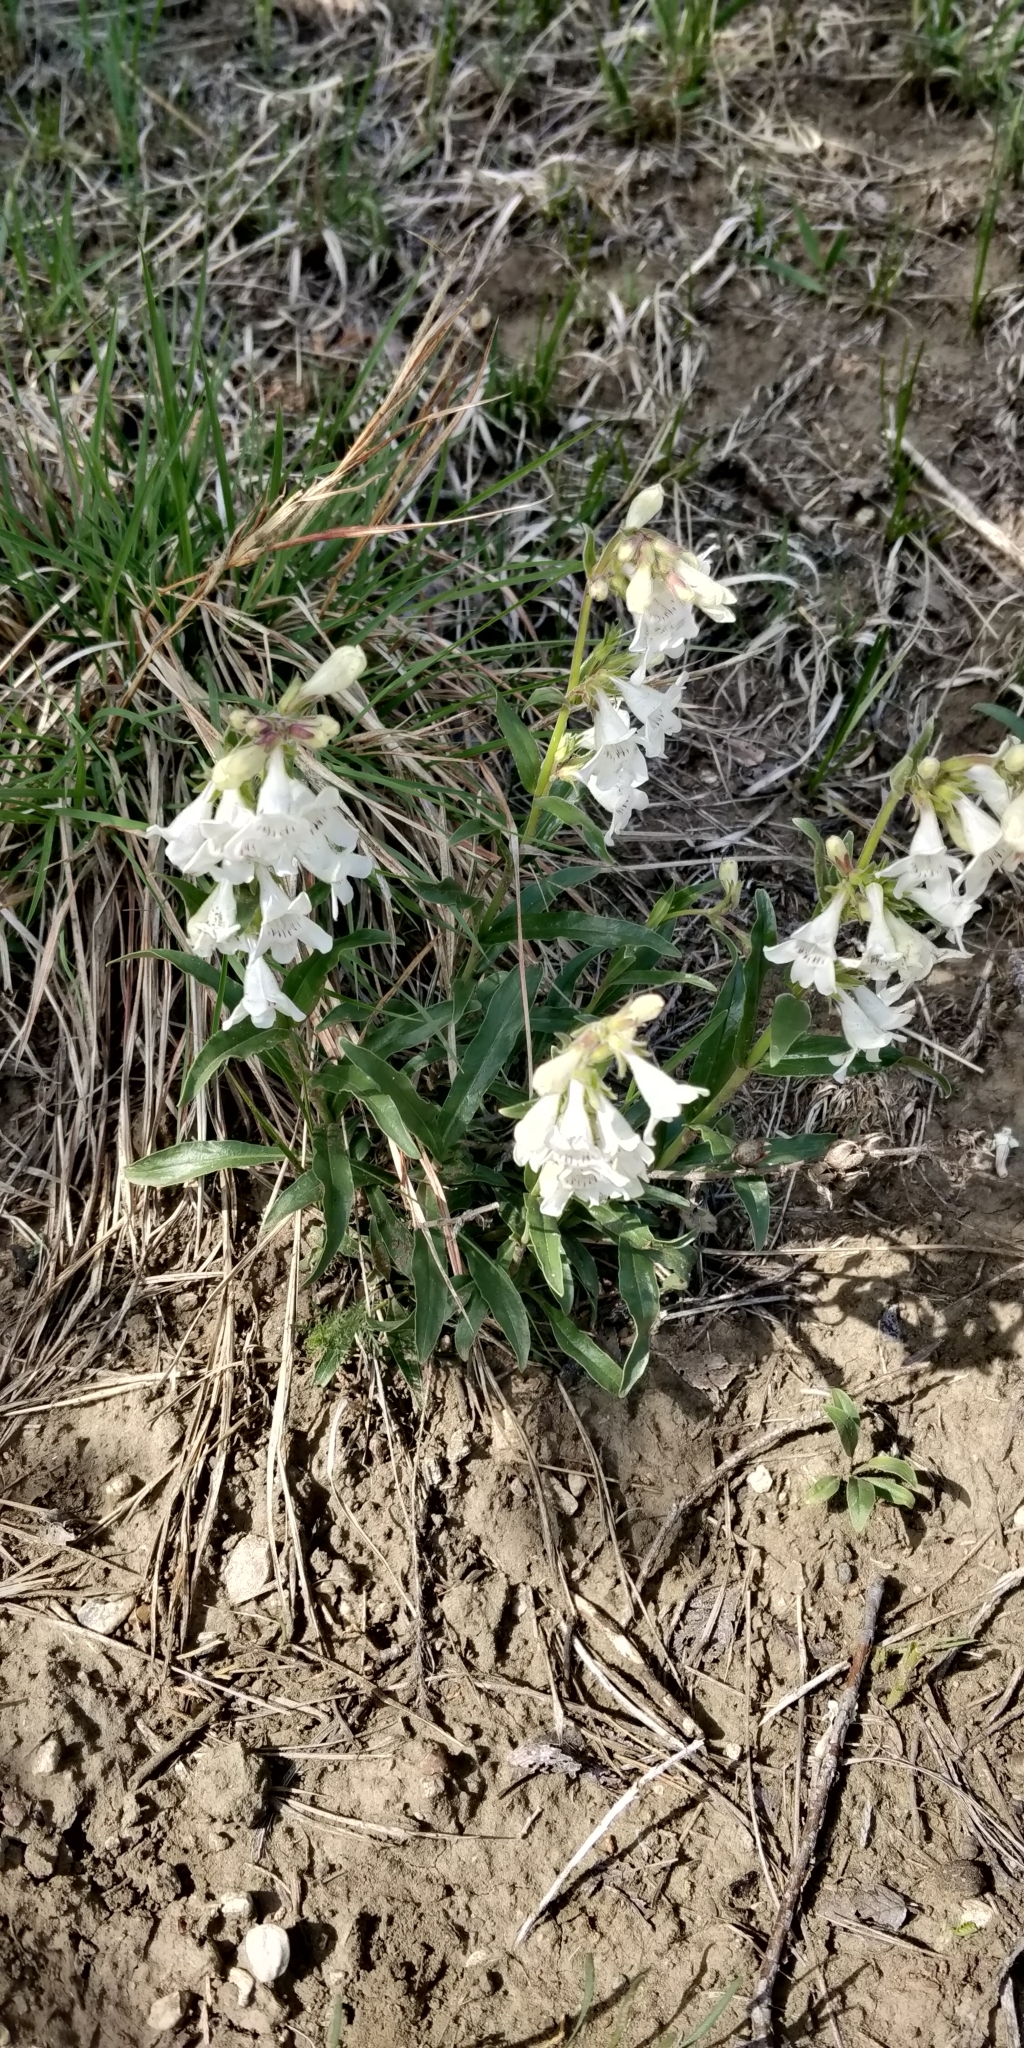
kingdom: Plantae
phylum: Tracheophyta
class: Magnoliopsida
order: Lamiales
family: Plantaginaceae
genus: Penstemon
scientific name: Penstemon albidus
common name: White beardtongue
